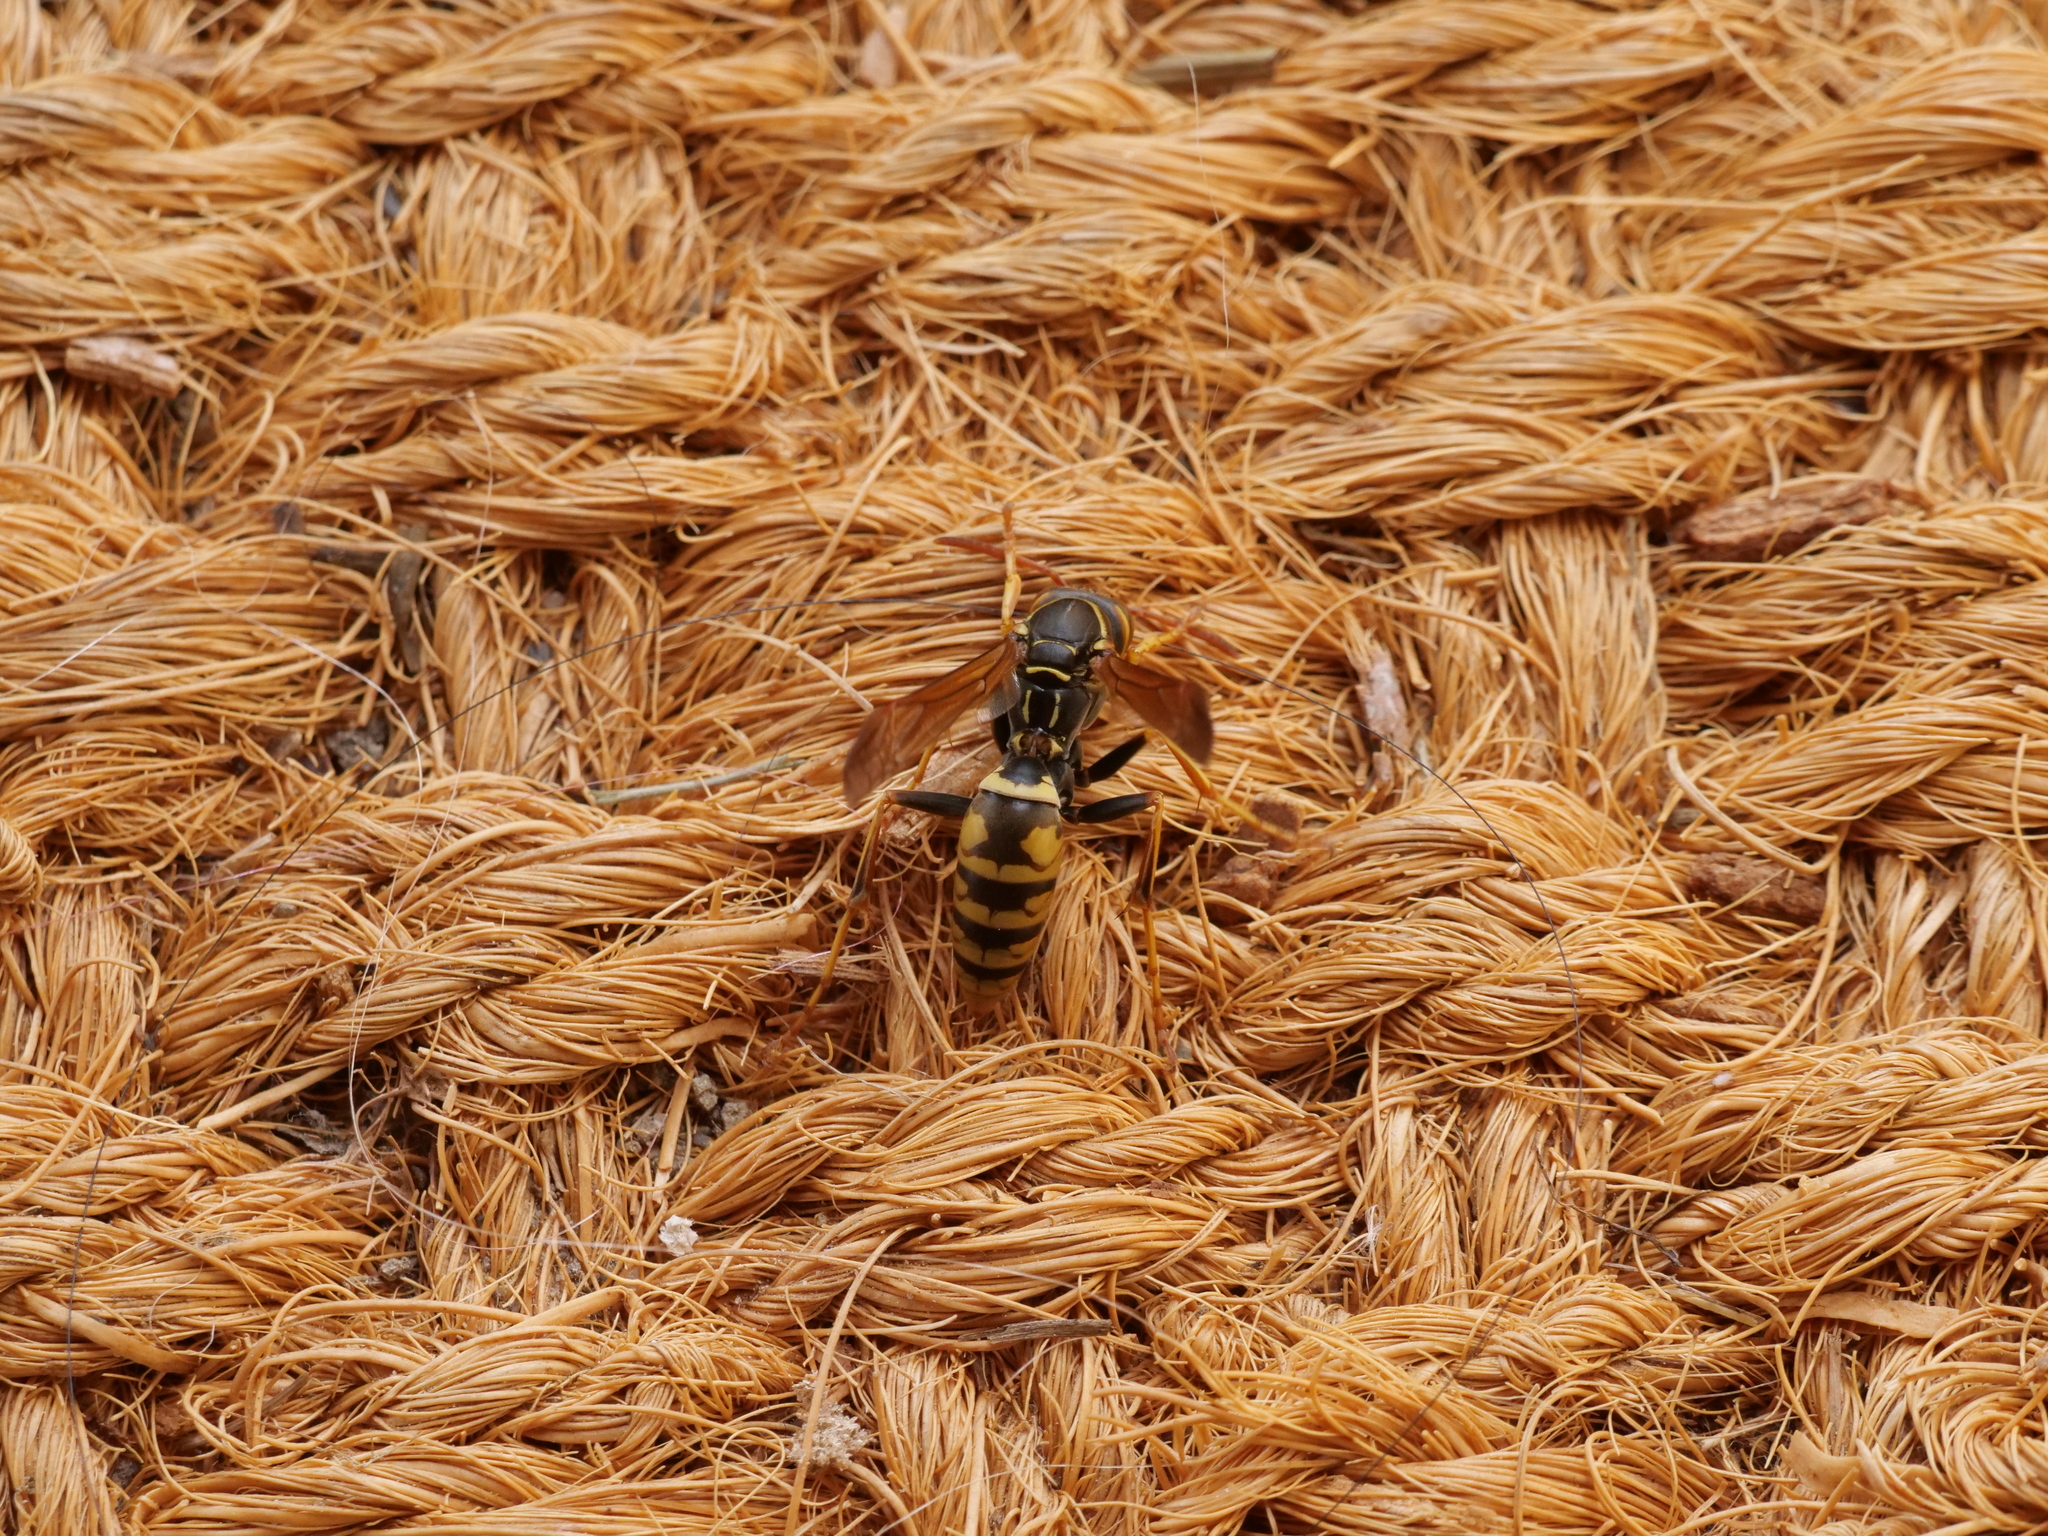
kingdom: Animalia
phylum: Arthropoda
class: Insecta
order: Hymenoptera
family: Eumenidae
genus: Polistes
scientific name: Polistes aurifer
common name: Paper wasp
